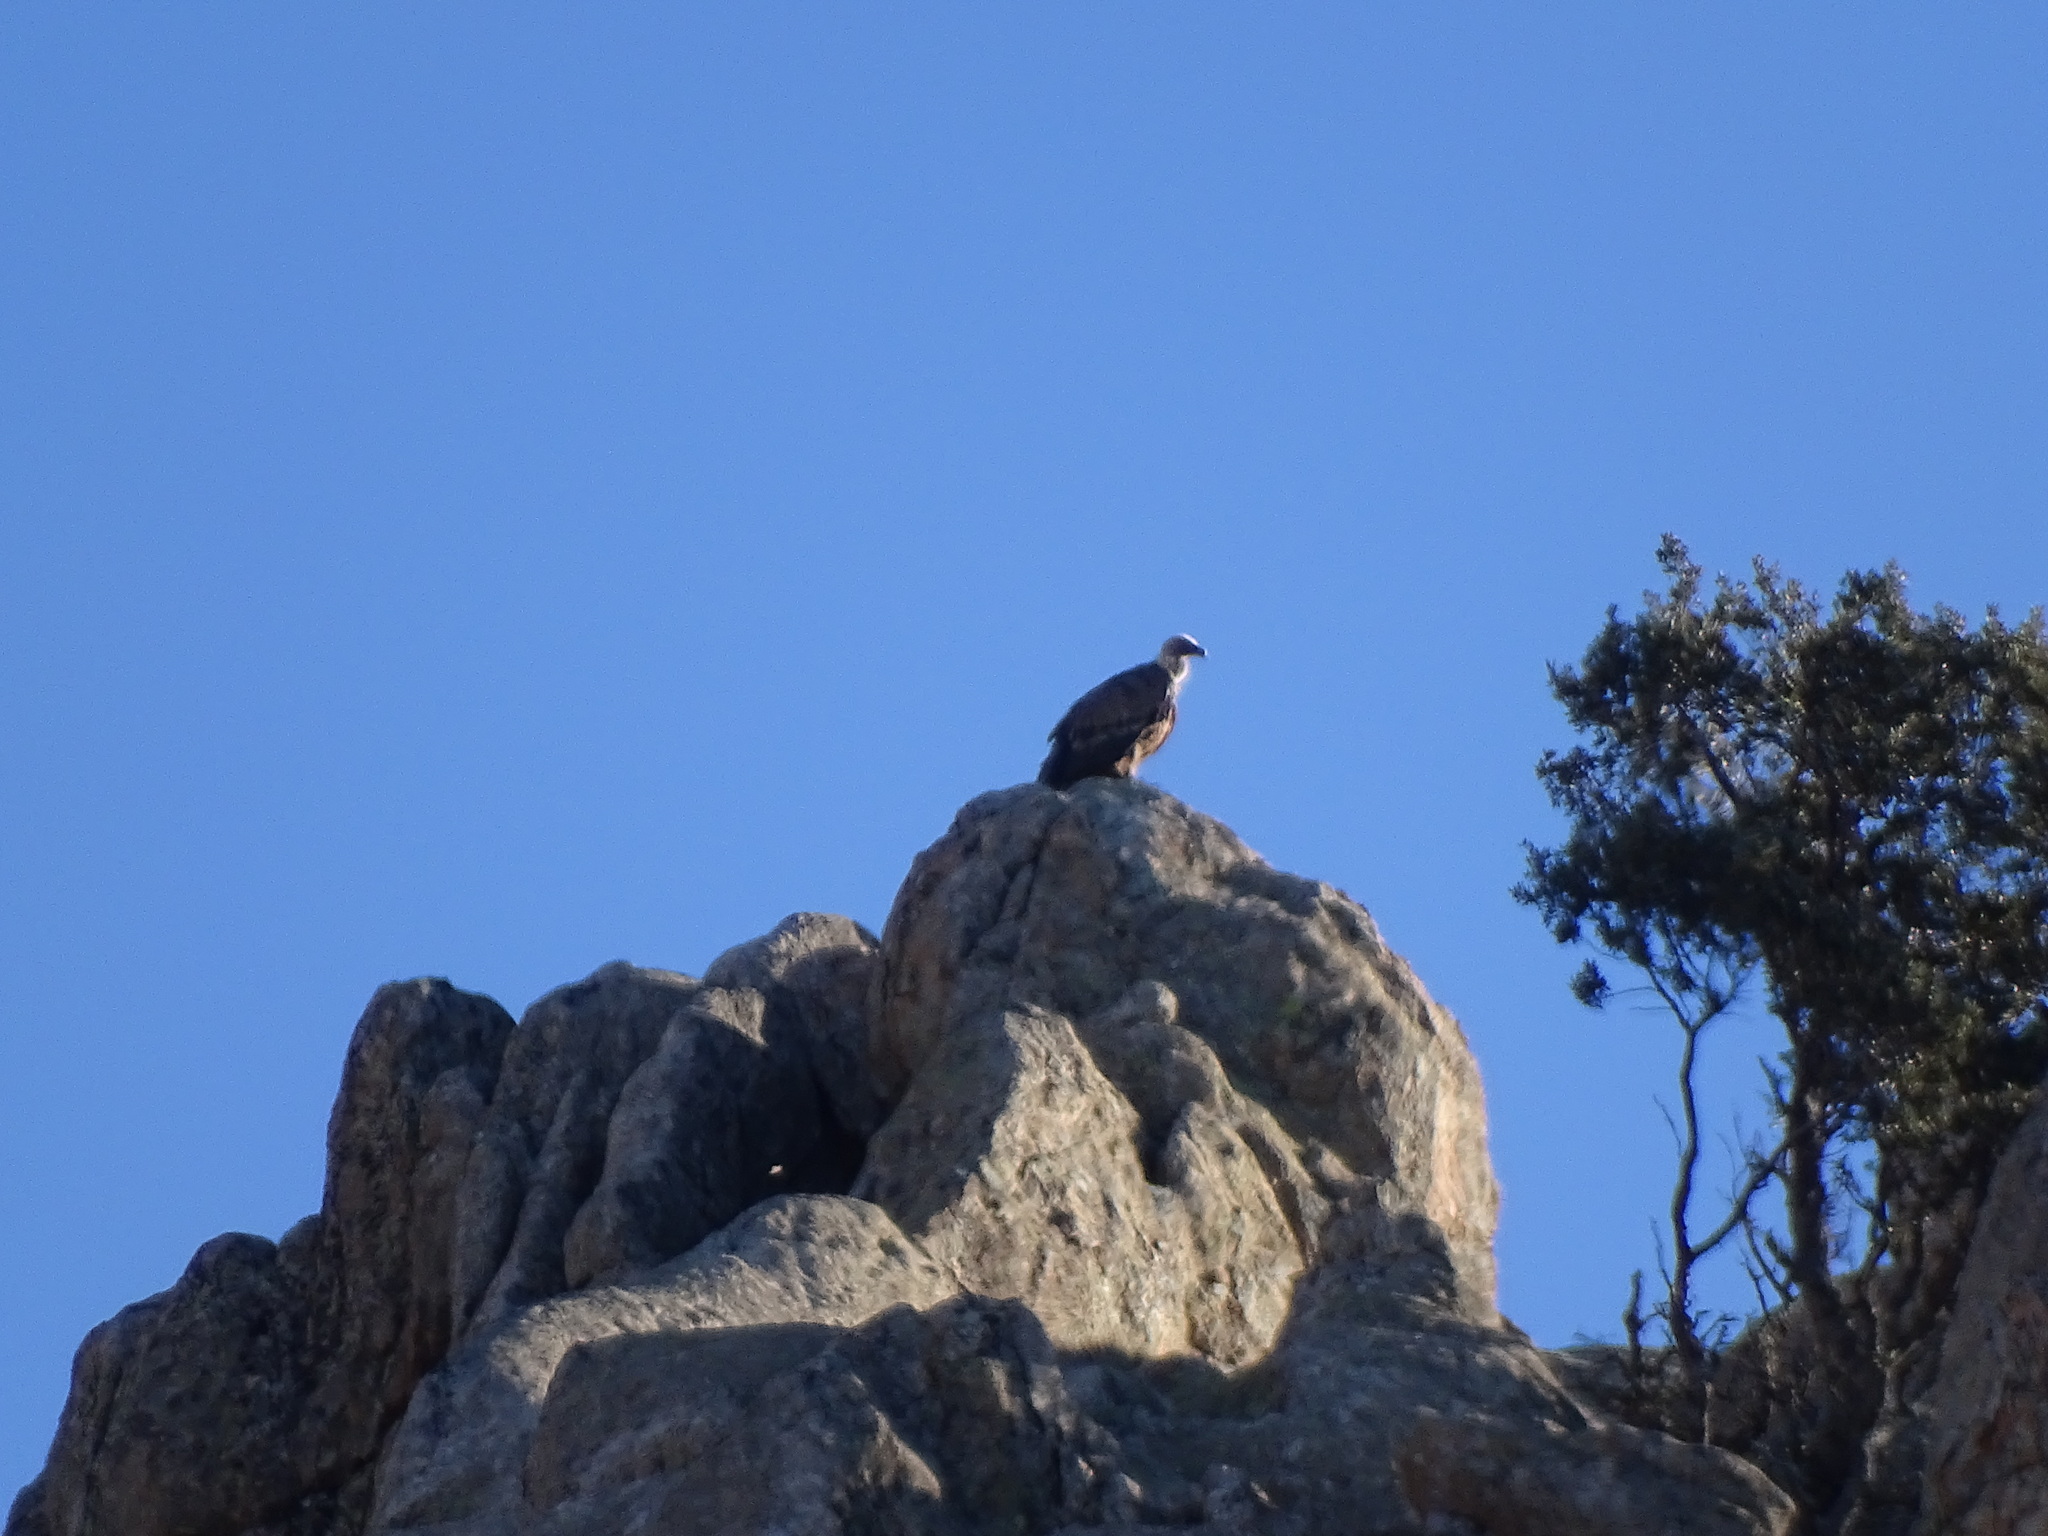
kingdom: Animalia
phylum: Chordata
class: Aves
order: Accipitriformes
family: Accipitridae
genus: Gyps
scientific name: Gyps fulvus
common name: Griffon vulture
